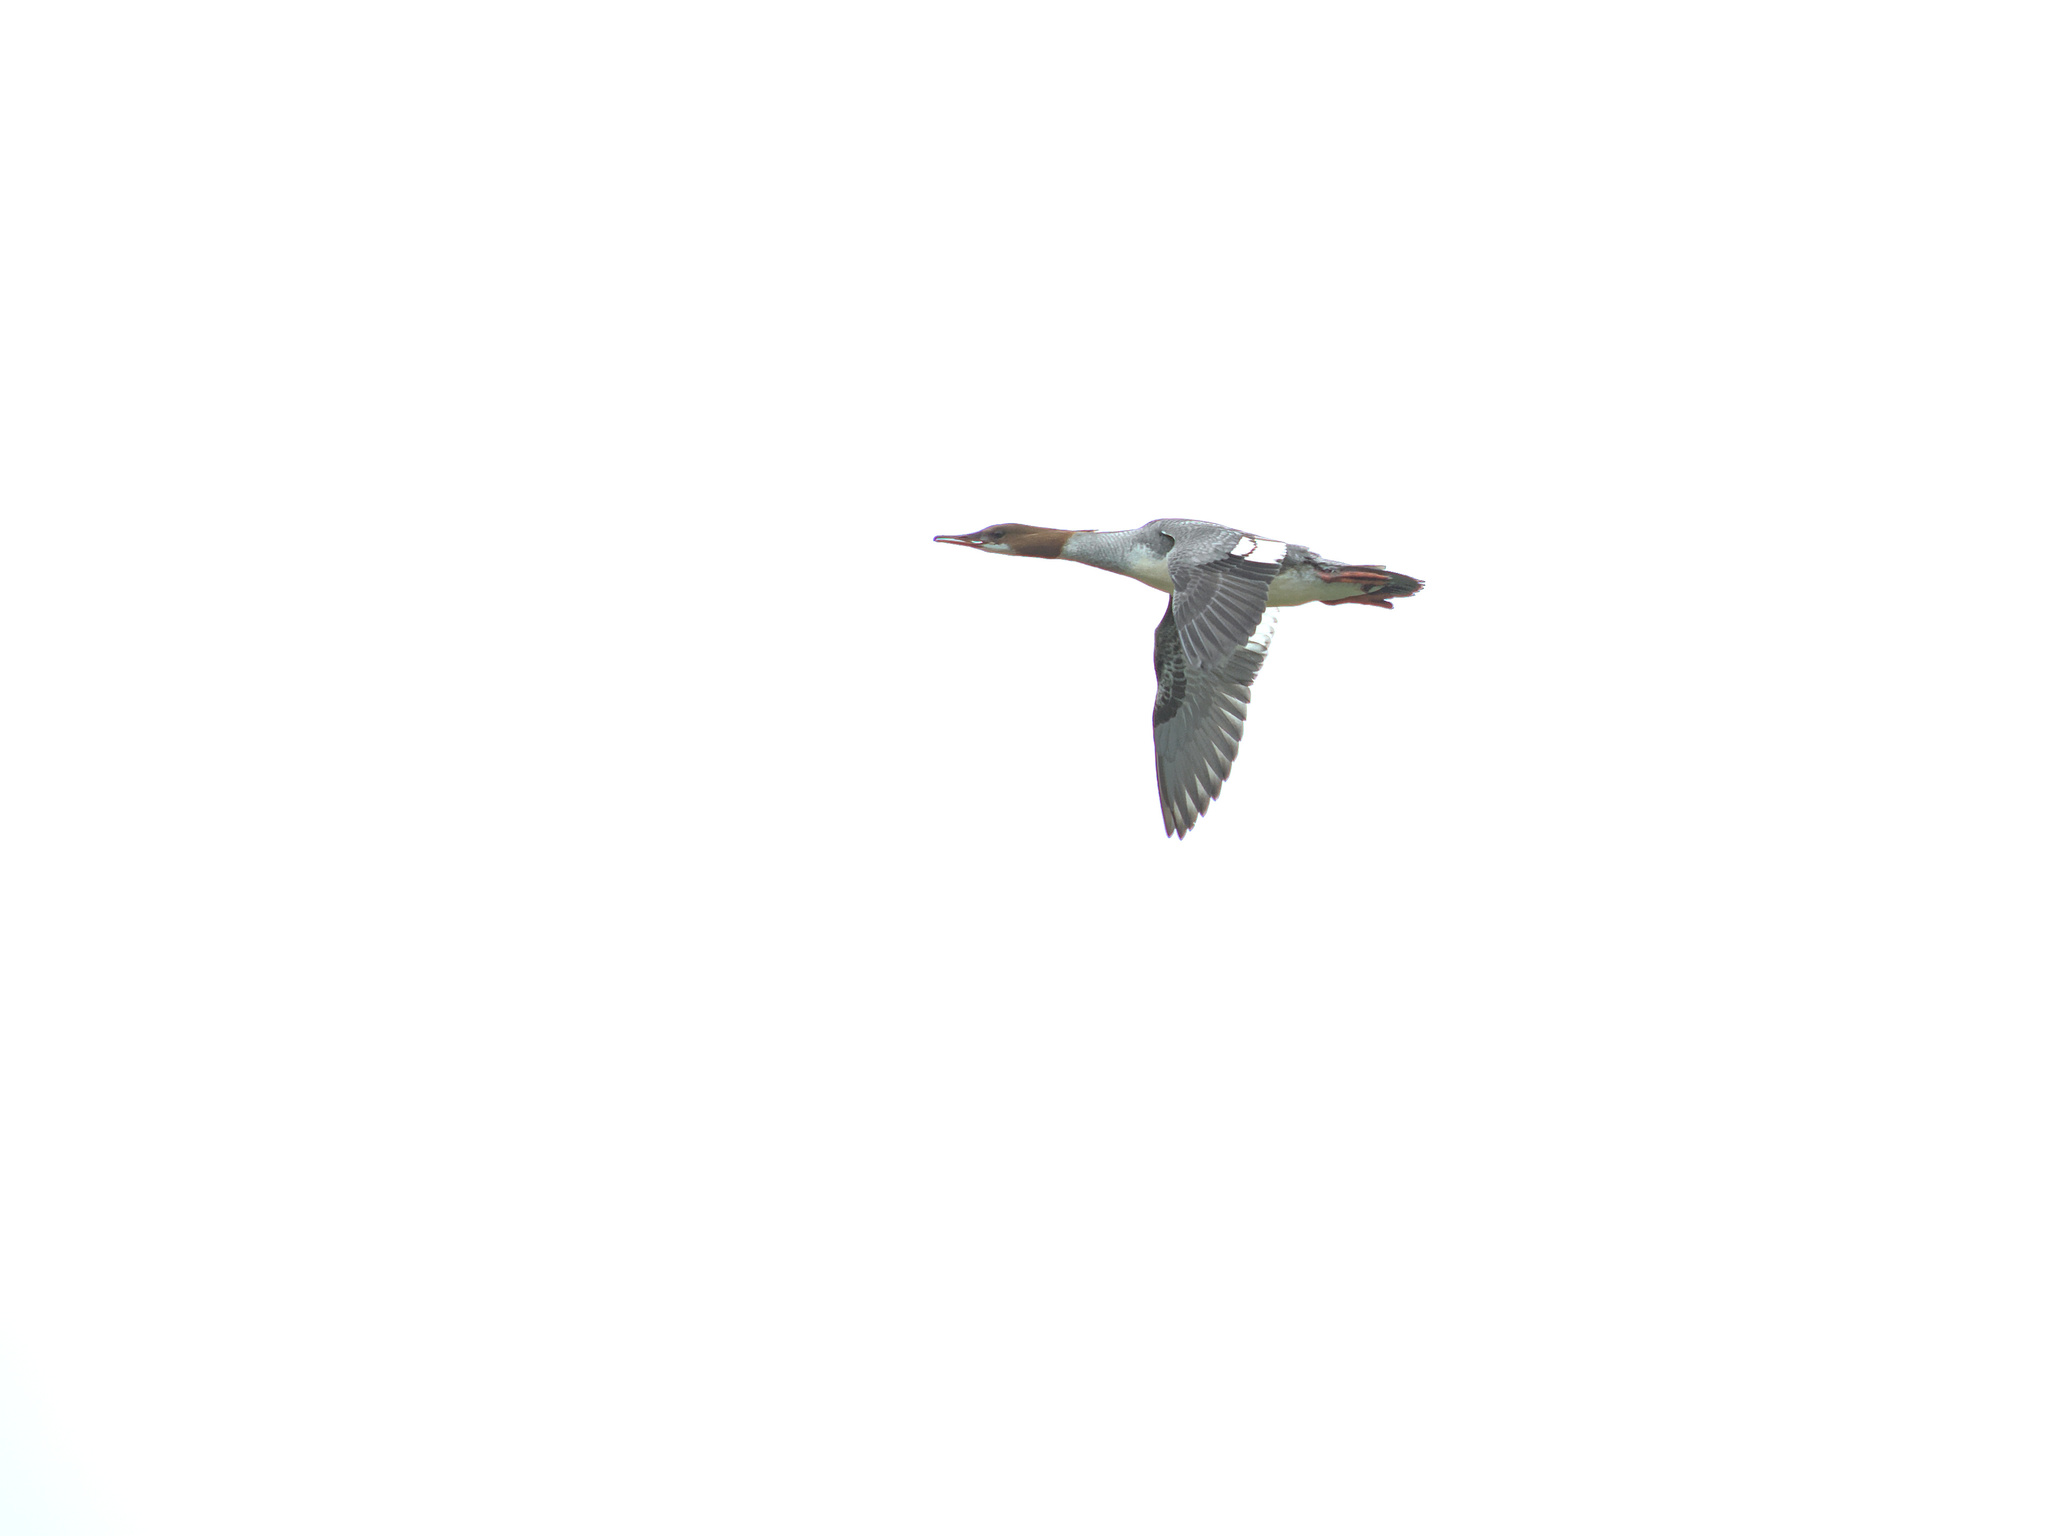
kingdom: Animalia
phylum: Chordata
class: Aves
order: Anseriformes
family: Anatidae
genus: Mergus
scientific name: Mergus merganser
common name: Common merganser
